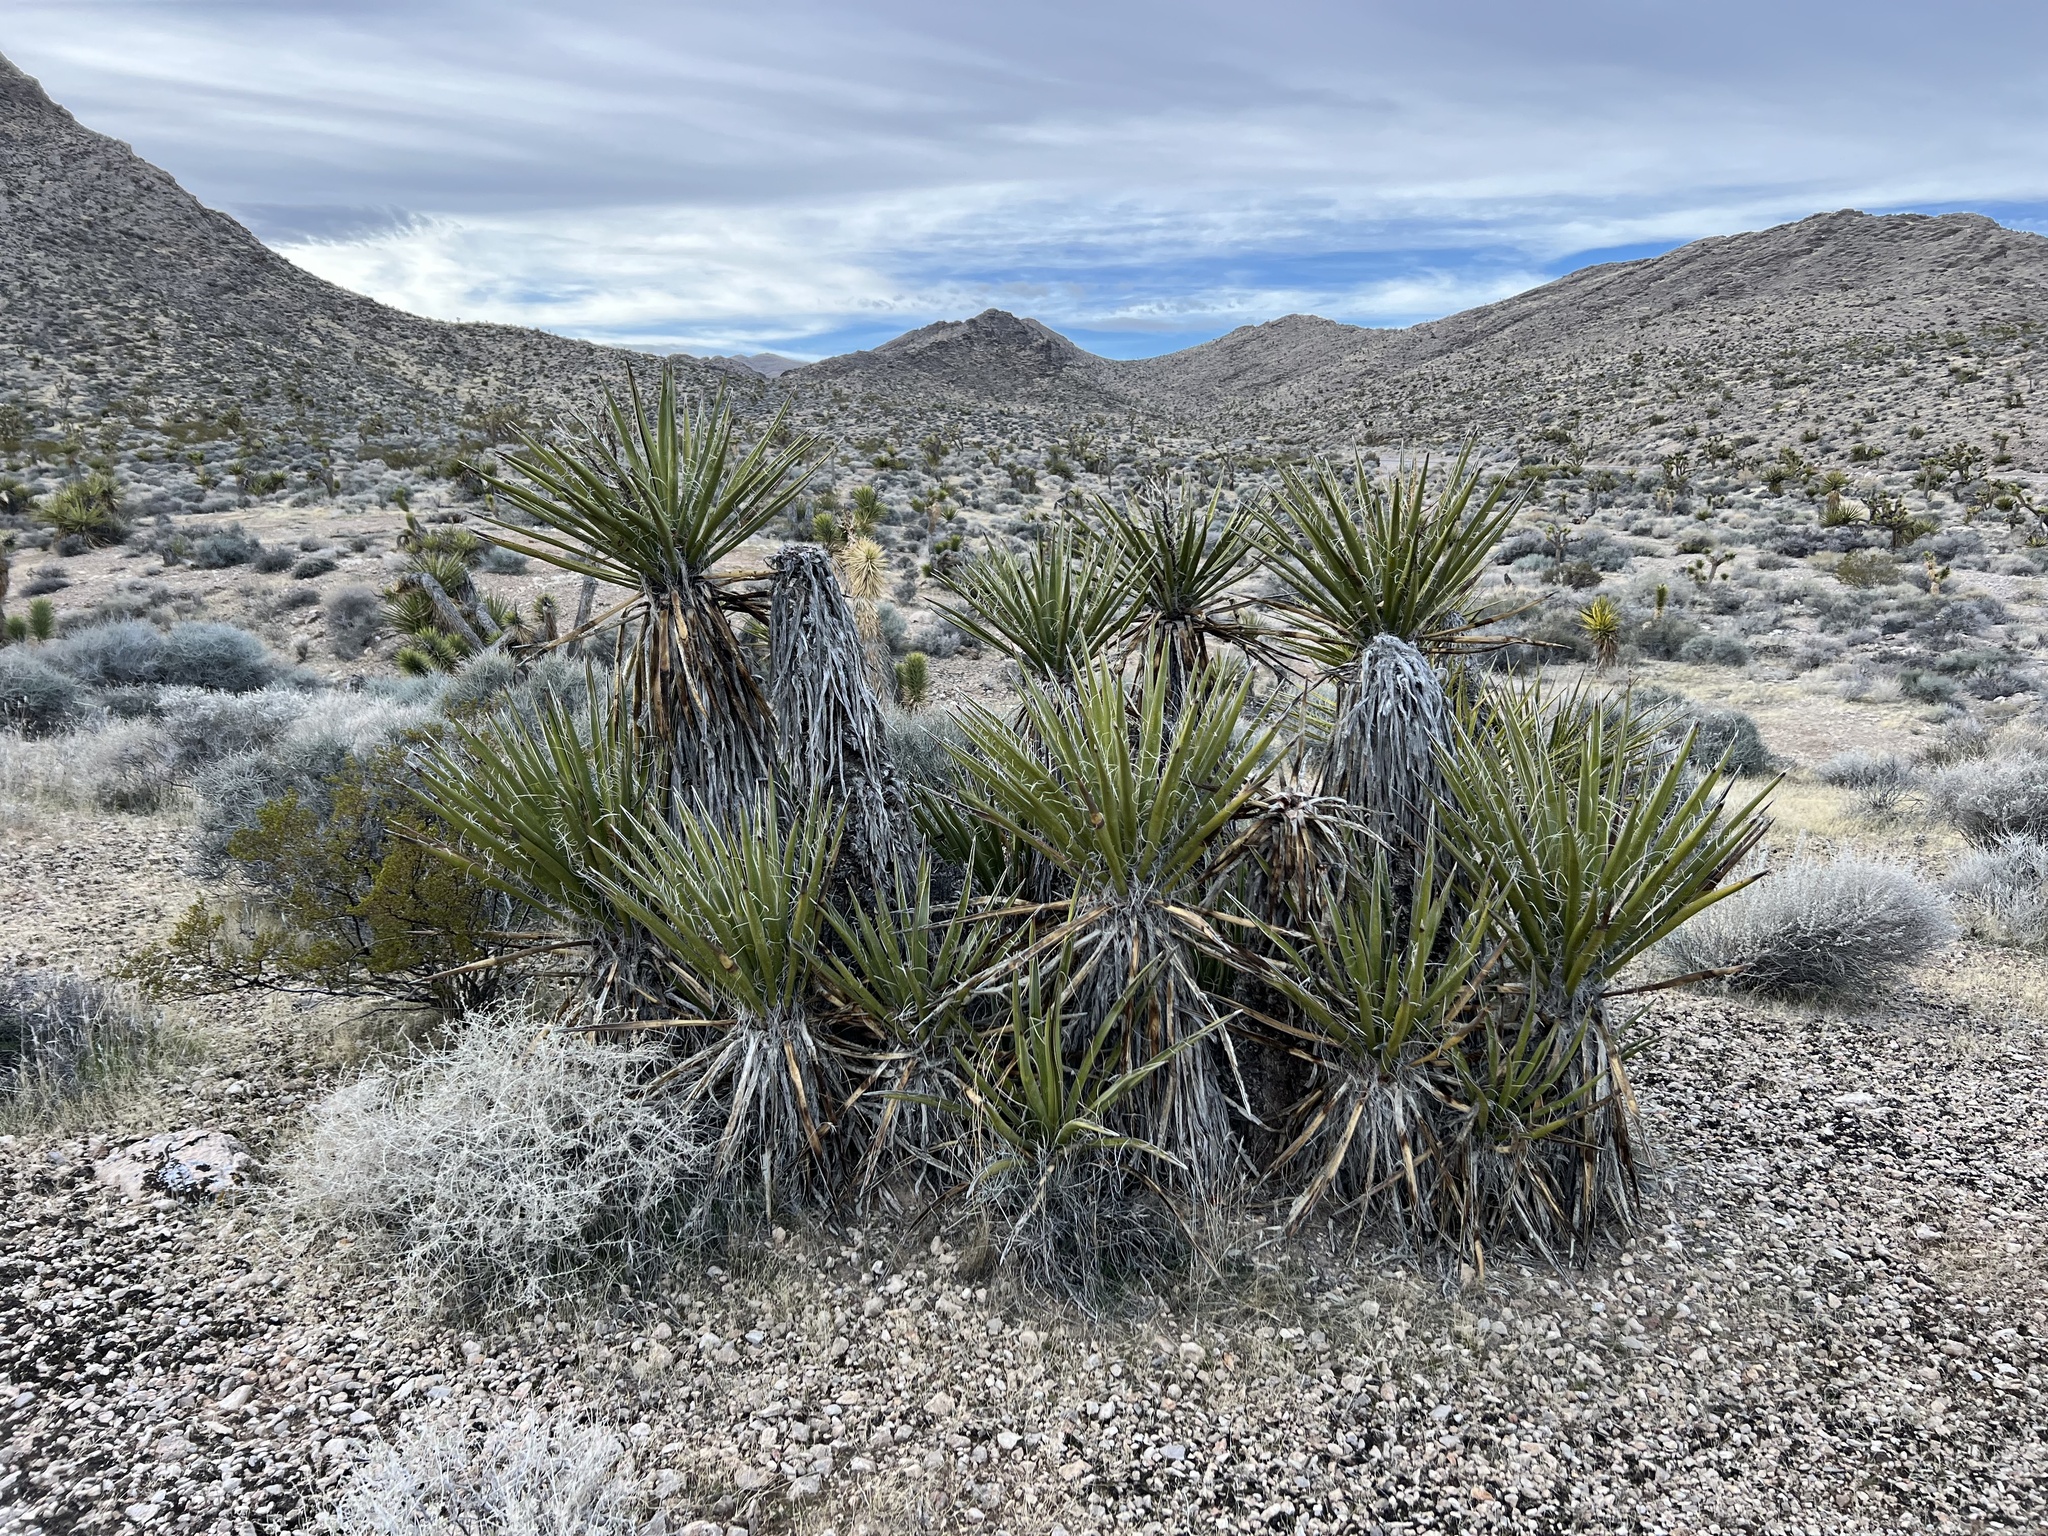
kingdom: Plantae
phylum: Tracheophyta
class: Liliopsida
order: Asparagales
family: Asparagaceae
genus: Yucca
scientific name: Yucca schidigera
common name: Mojave yucca
